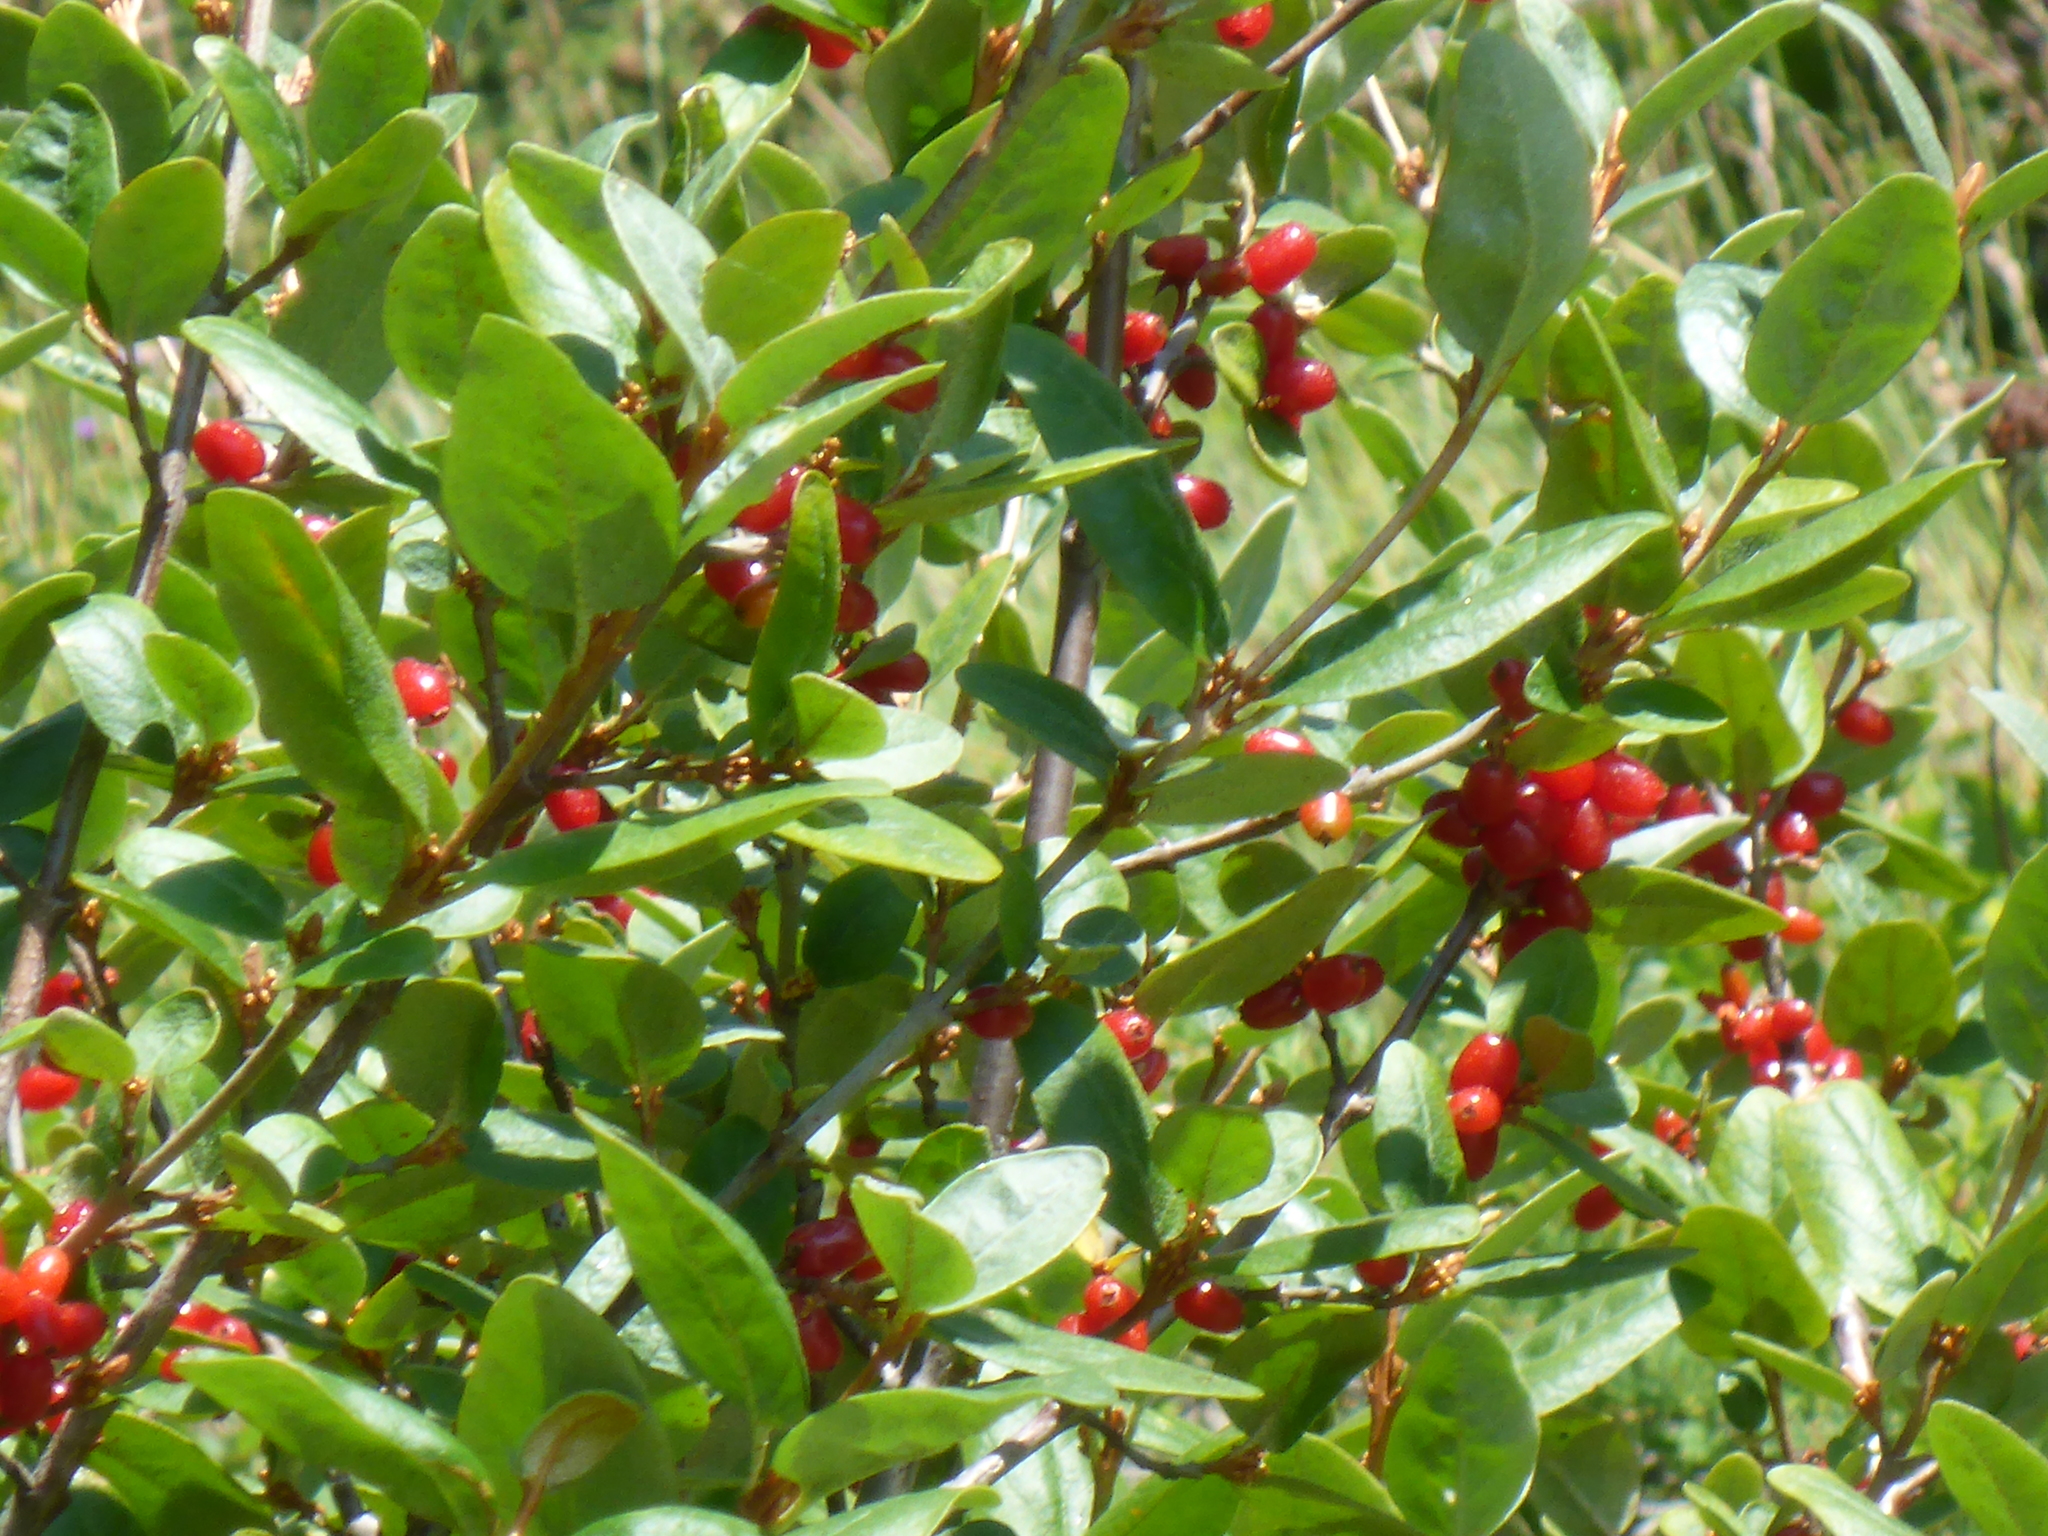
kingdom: Plantae
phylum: Tracheophyta
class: Magnoliopsida
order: Rosales
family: Elaeagnaceae
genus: Shepherdia
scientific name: Shepherdia canadensis
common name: Soapberry
